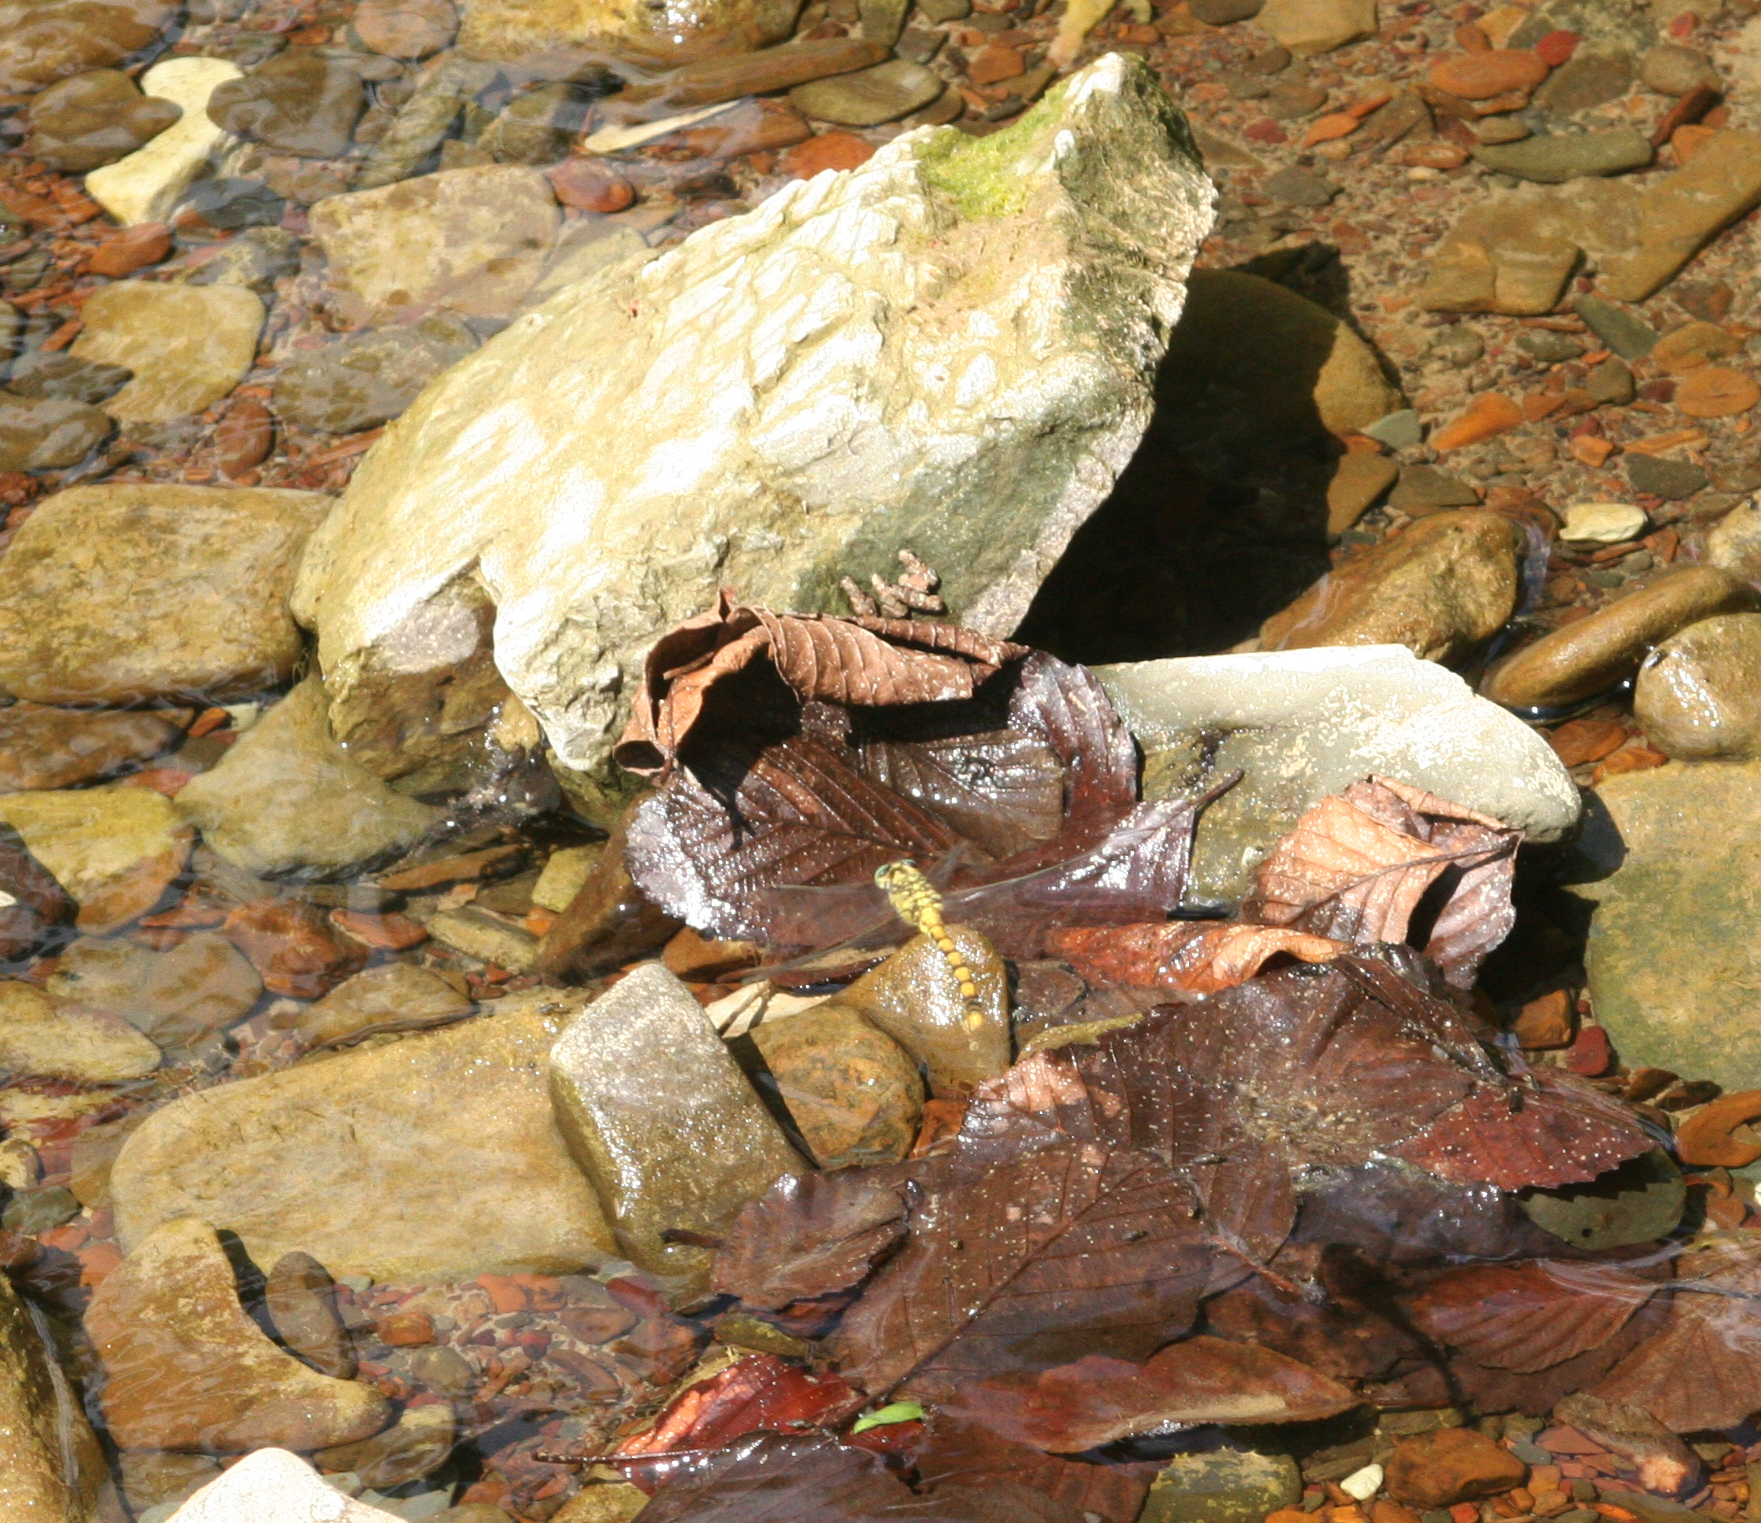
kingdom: Animalia
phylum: Arthropoda
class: Insecta
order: Odonata
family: Gomphidae
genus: Onychogomphus
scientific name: Onychogomphus forcipatus
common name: Small pincertail
